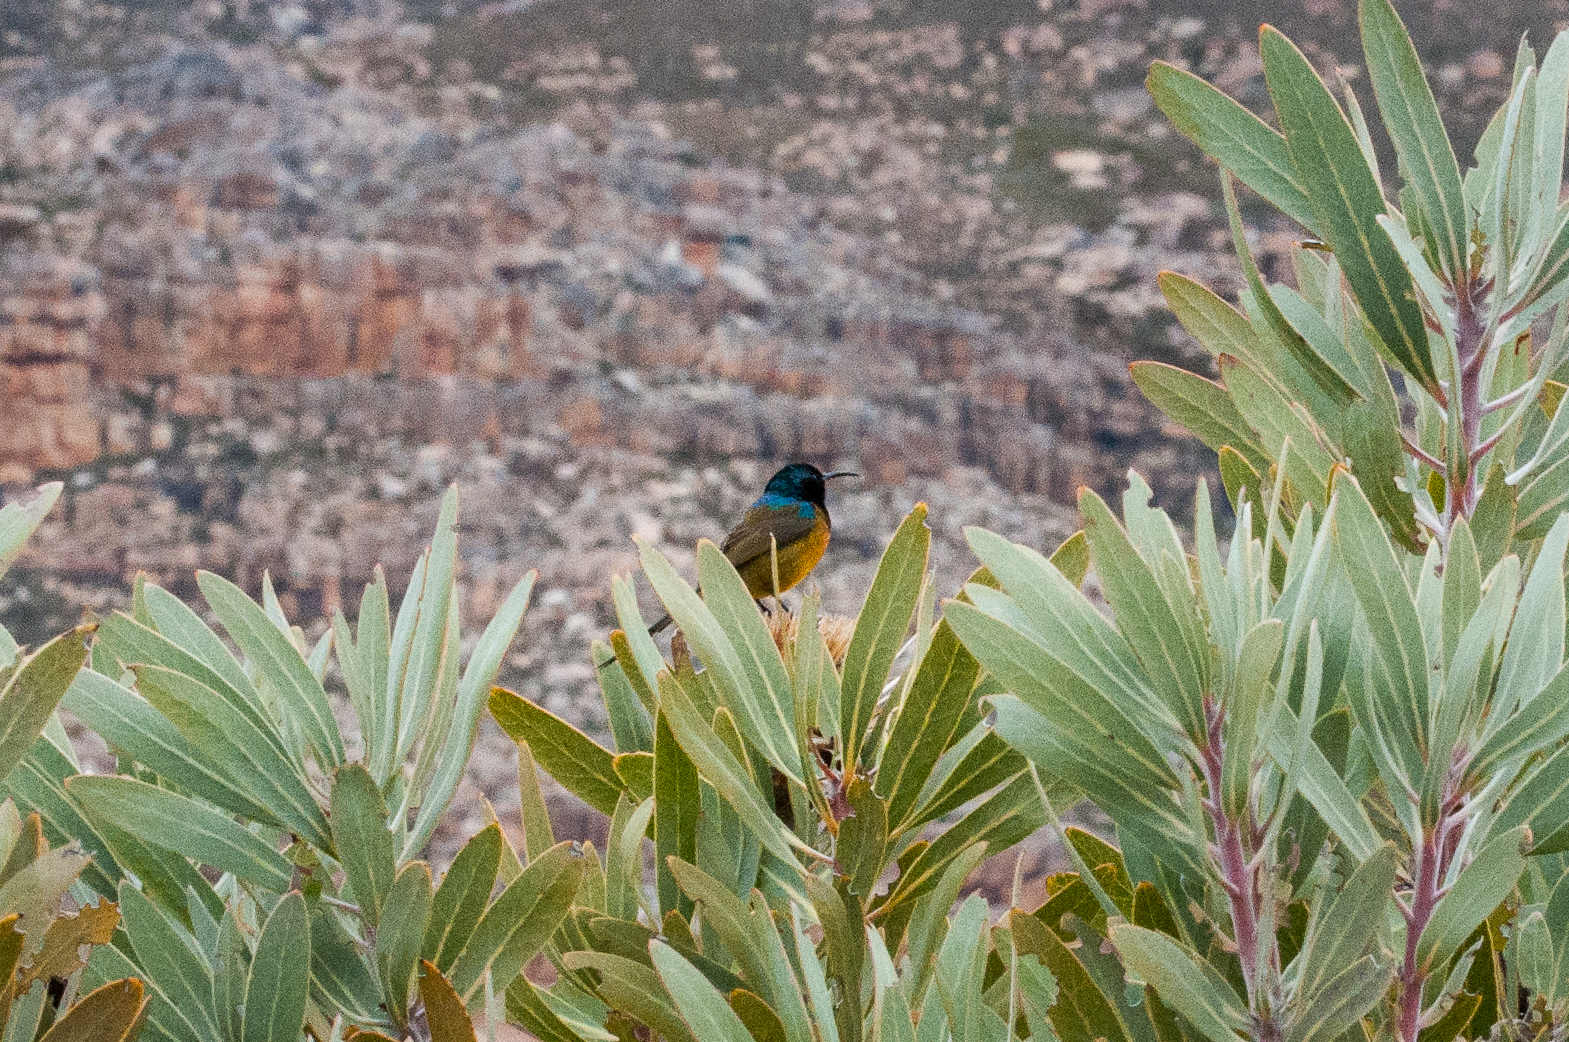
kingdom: Animalia
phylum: Chordata
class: Aves
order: Passeriformes
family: Nectariniidae
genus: Anthobaphes
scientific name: Anthobaphes violacea
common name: Orange-breasted sunbird
